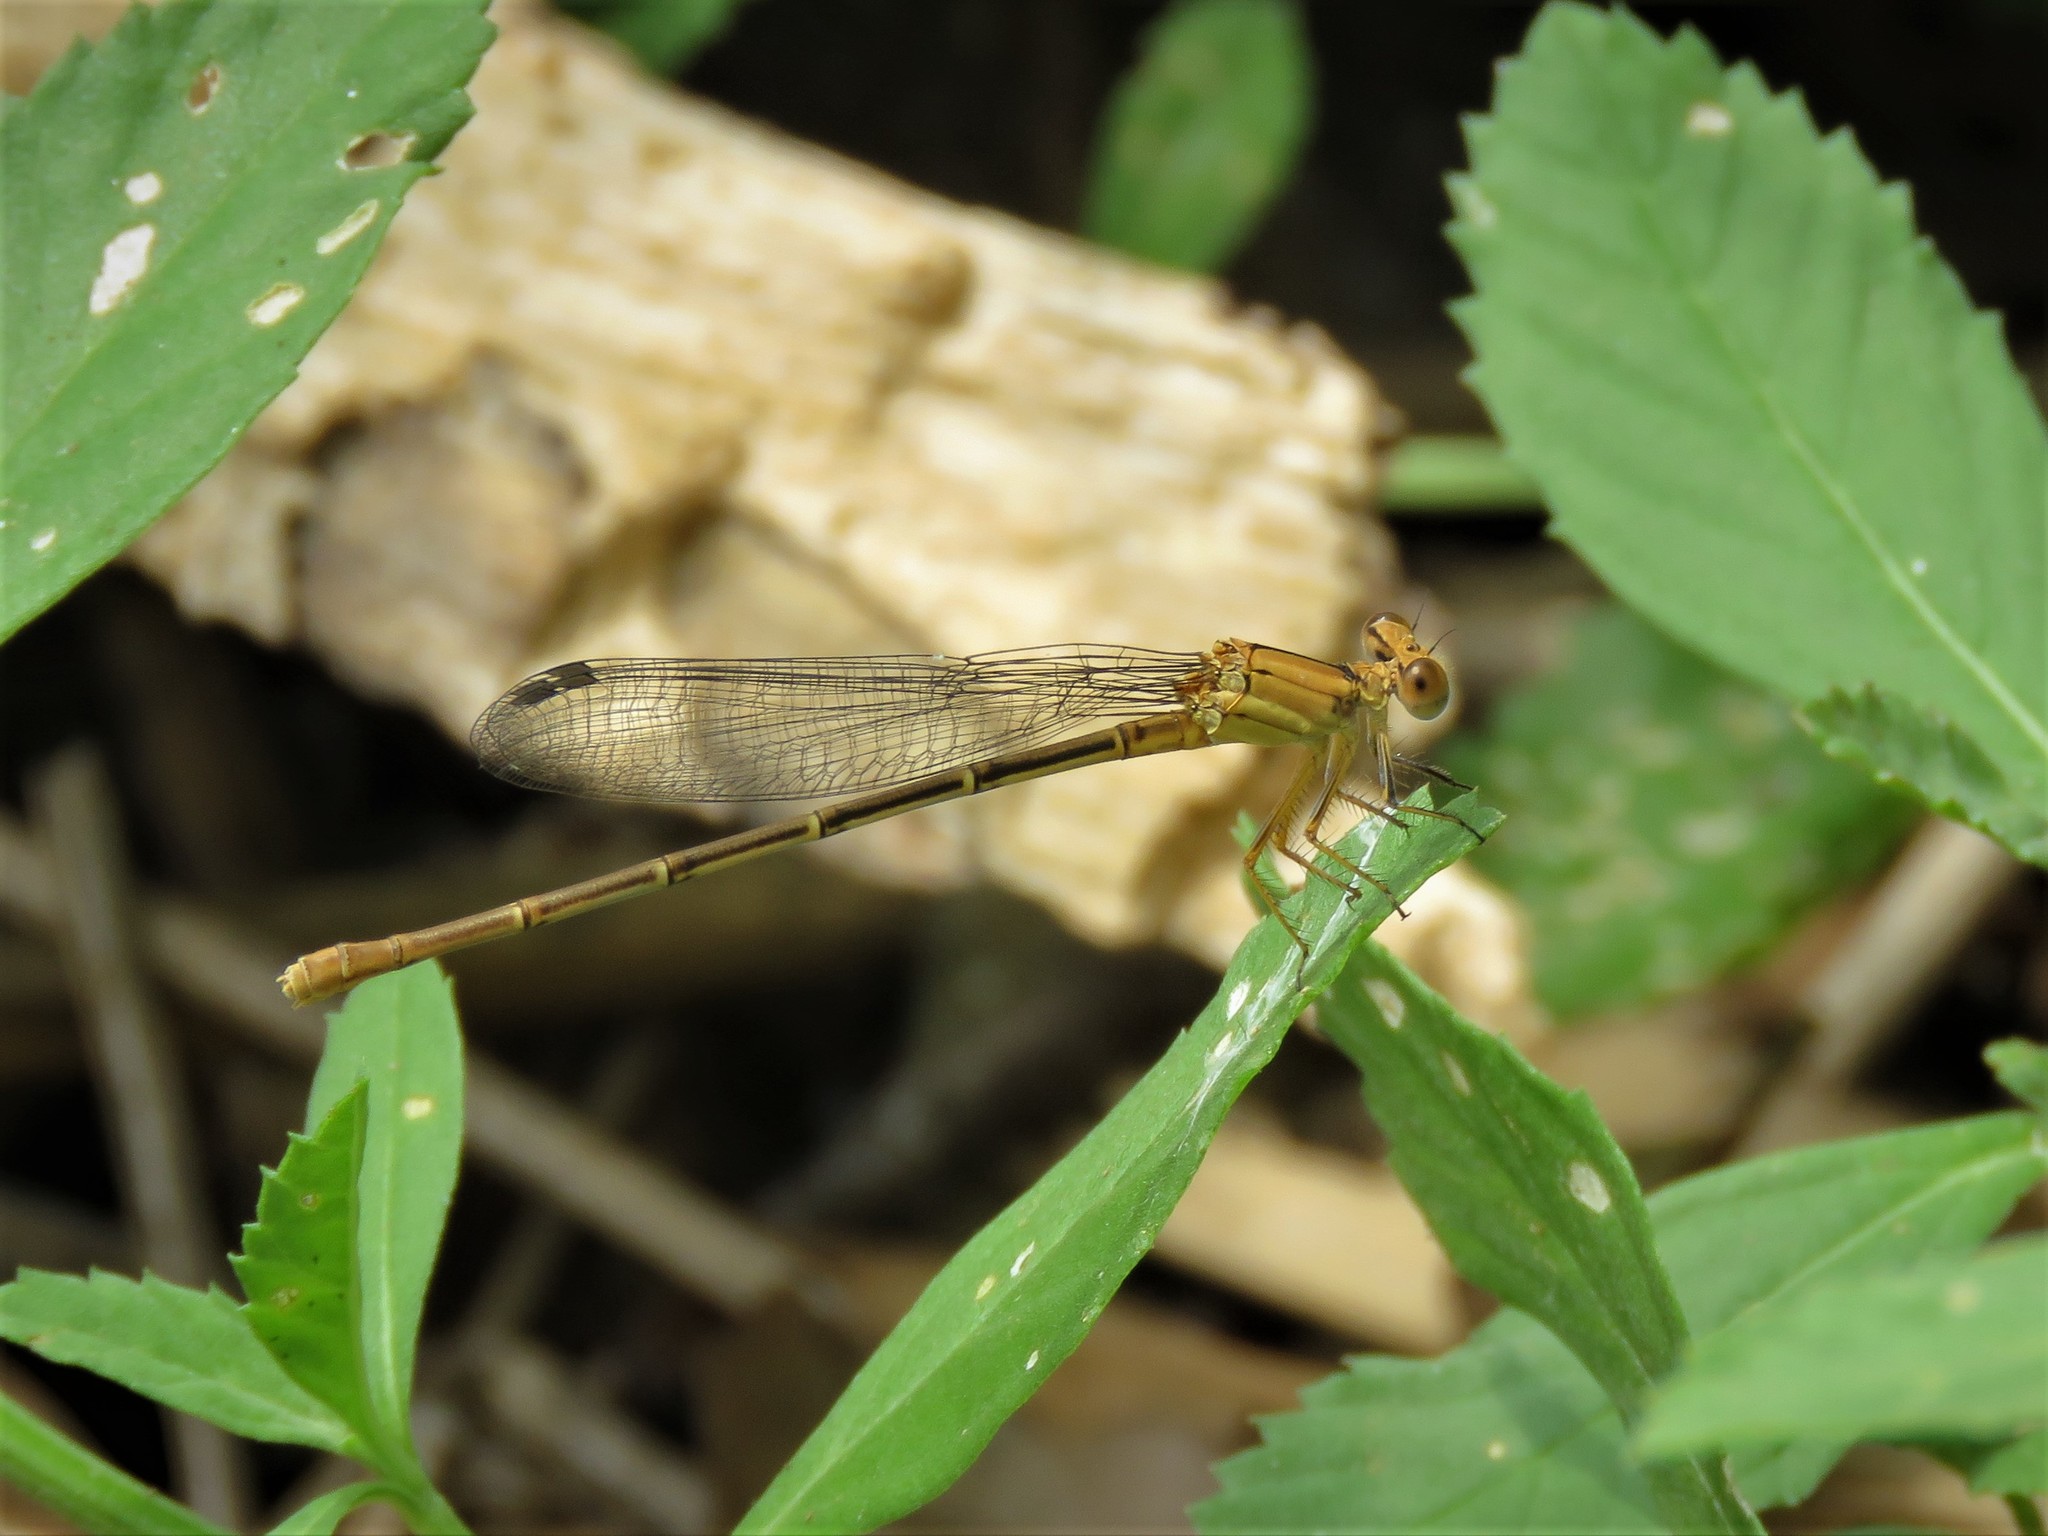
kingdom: Animalia
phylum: Arthropoda
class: Insecta
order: Odonata
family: Coenagrionidae
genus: Argia
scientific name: Argia moesta
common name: Powdered dancer
